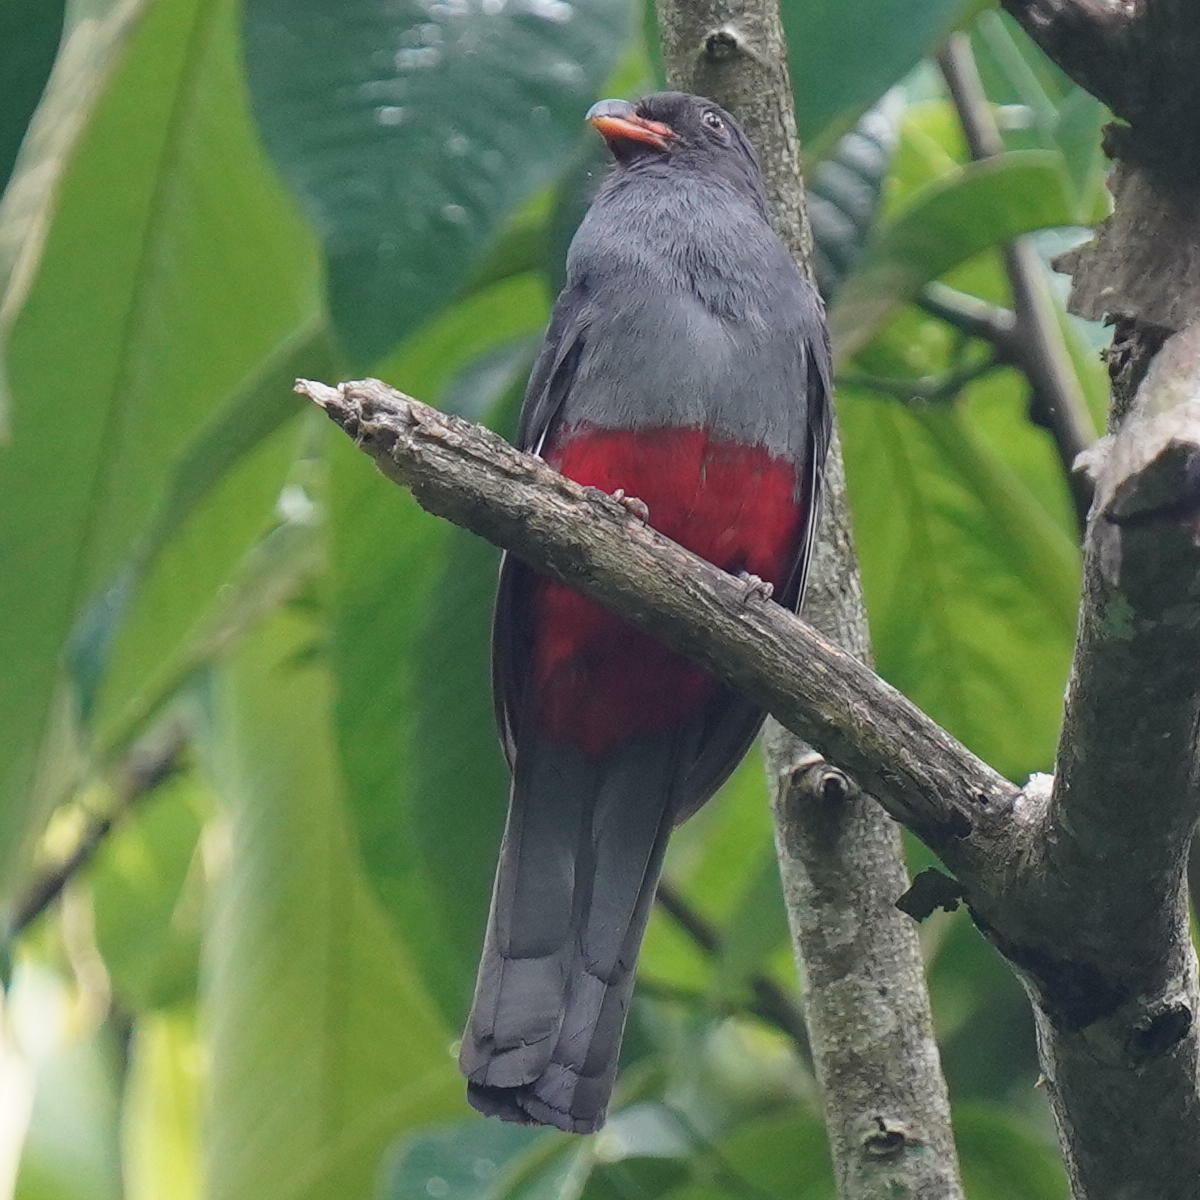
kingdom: Animalia
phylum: Chordata
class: Aves
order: Trogoniformes
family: Trogonidae
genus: Trogon
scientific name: Trogon massena
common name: Slaty-tailed trogon
